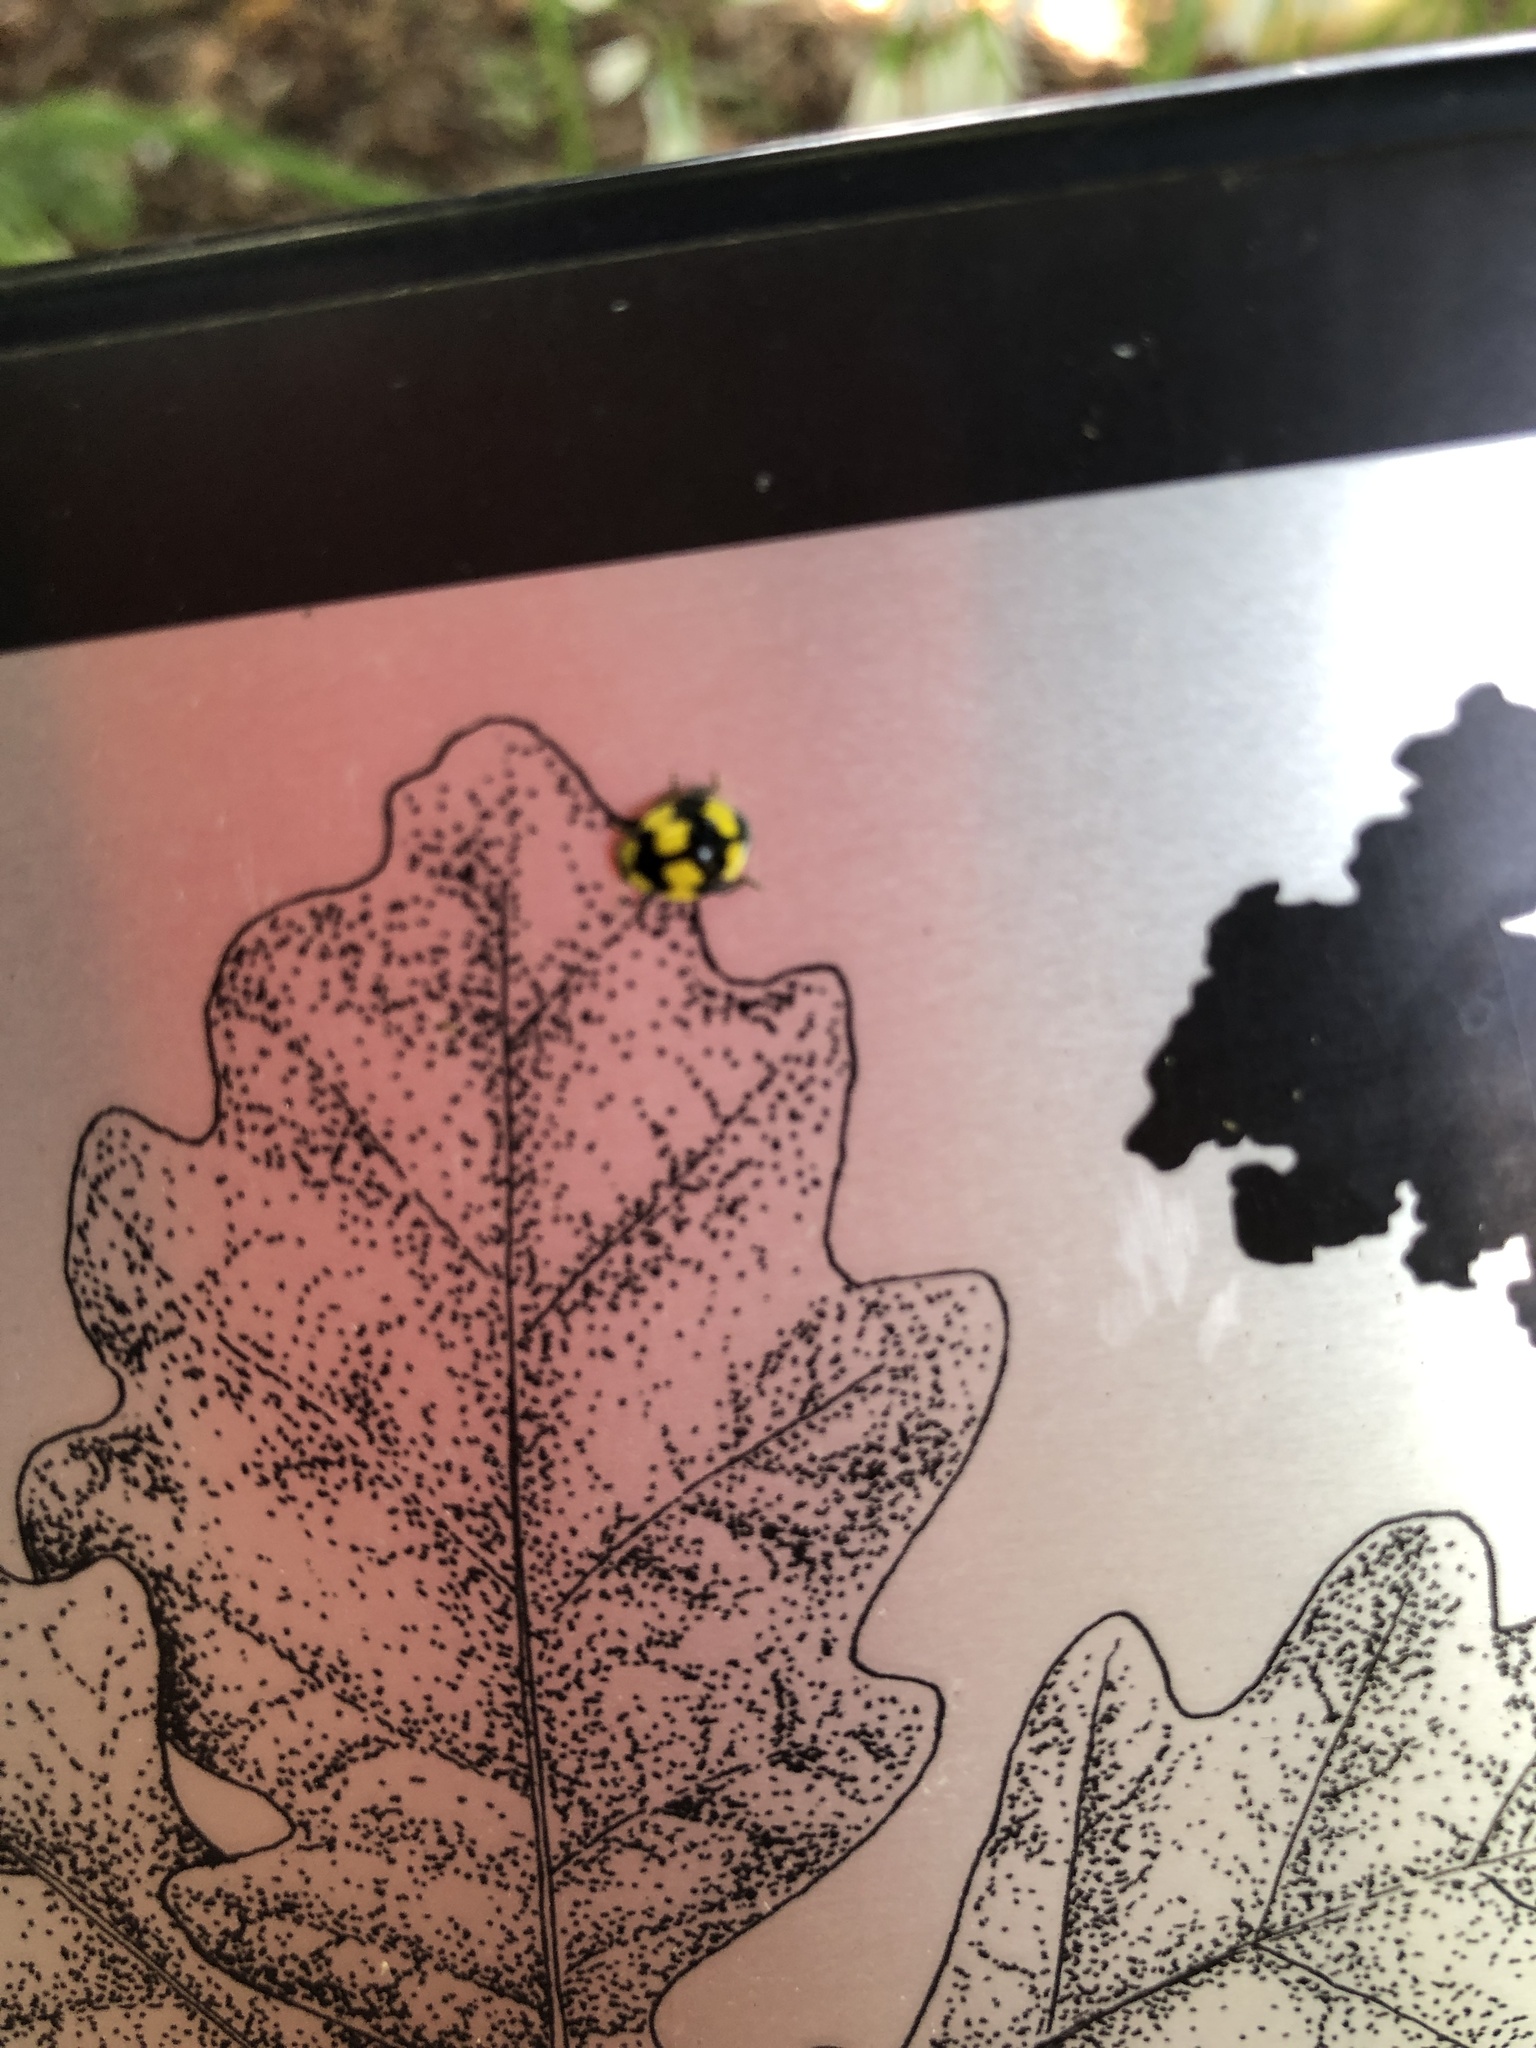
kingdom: Animalia
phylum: Arthropoda
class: Insecta
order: Coleoptera
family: Coccinellidae
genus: Illeis
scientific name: Illeis galbula
